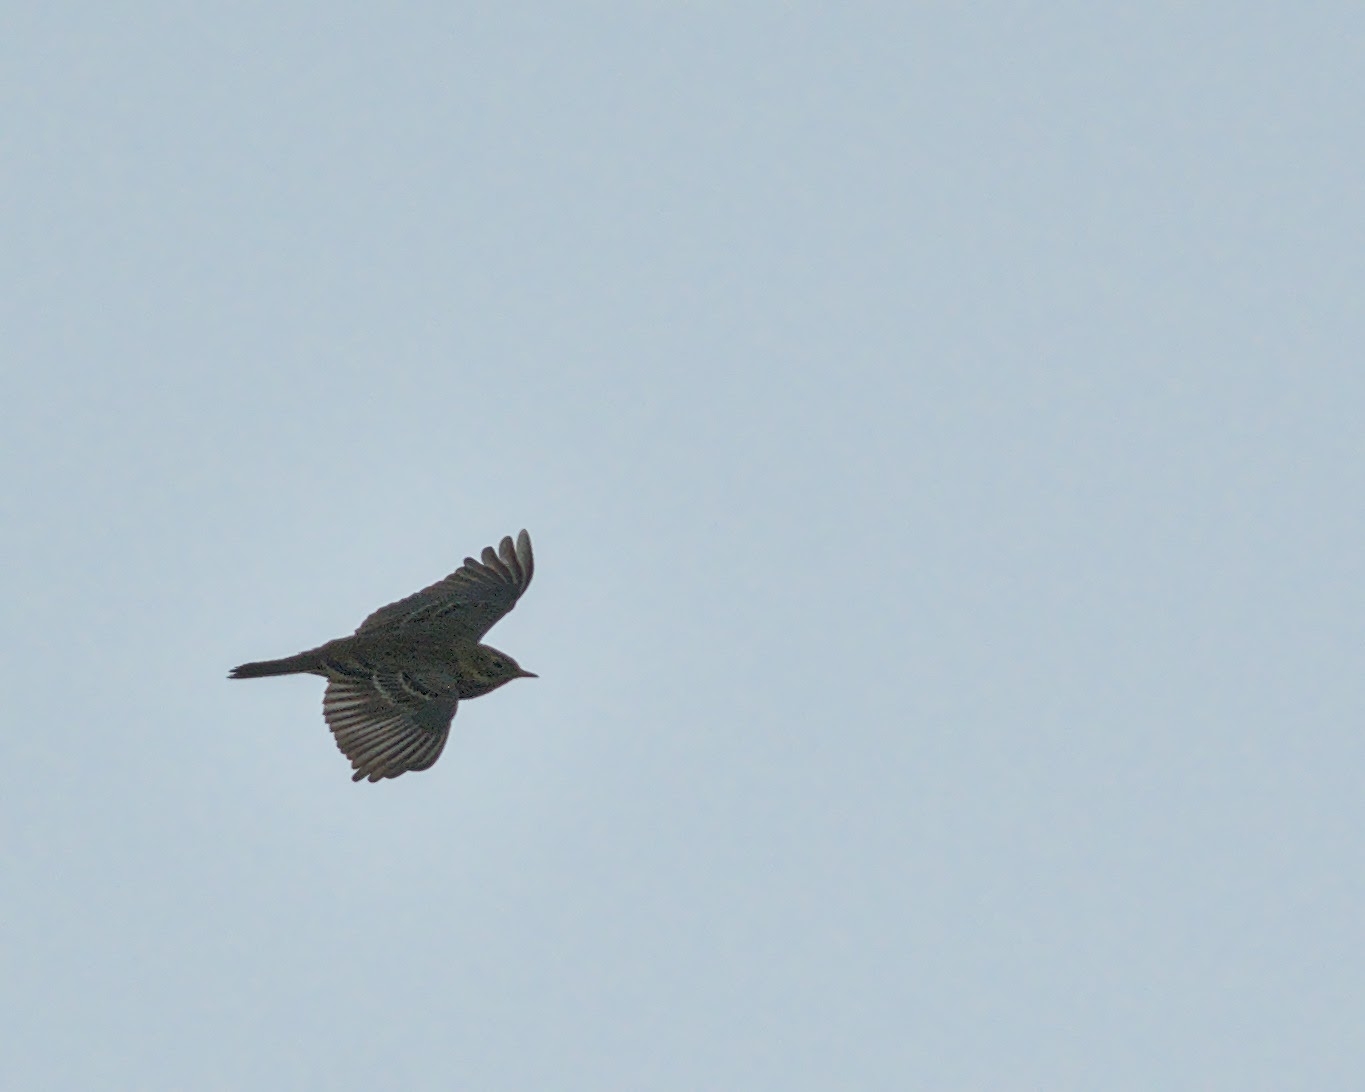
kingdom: Animalia
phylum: Chordata
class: Aves
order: Passeriformes
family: Motacillidae
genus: Anthus
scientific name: Anthus pratensis
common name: Meadow pipit
